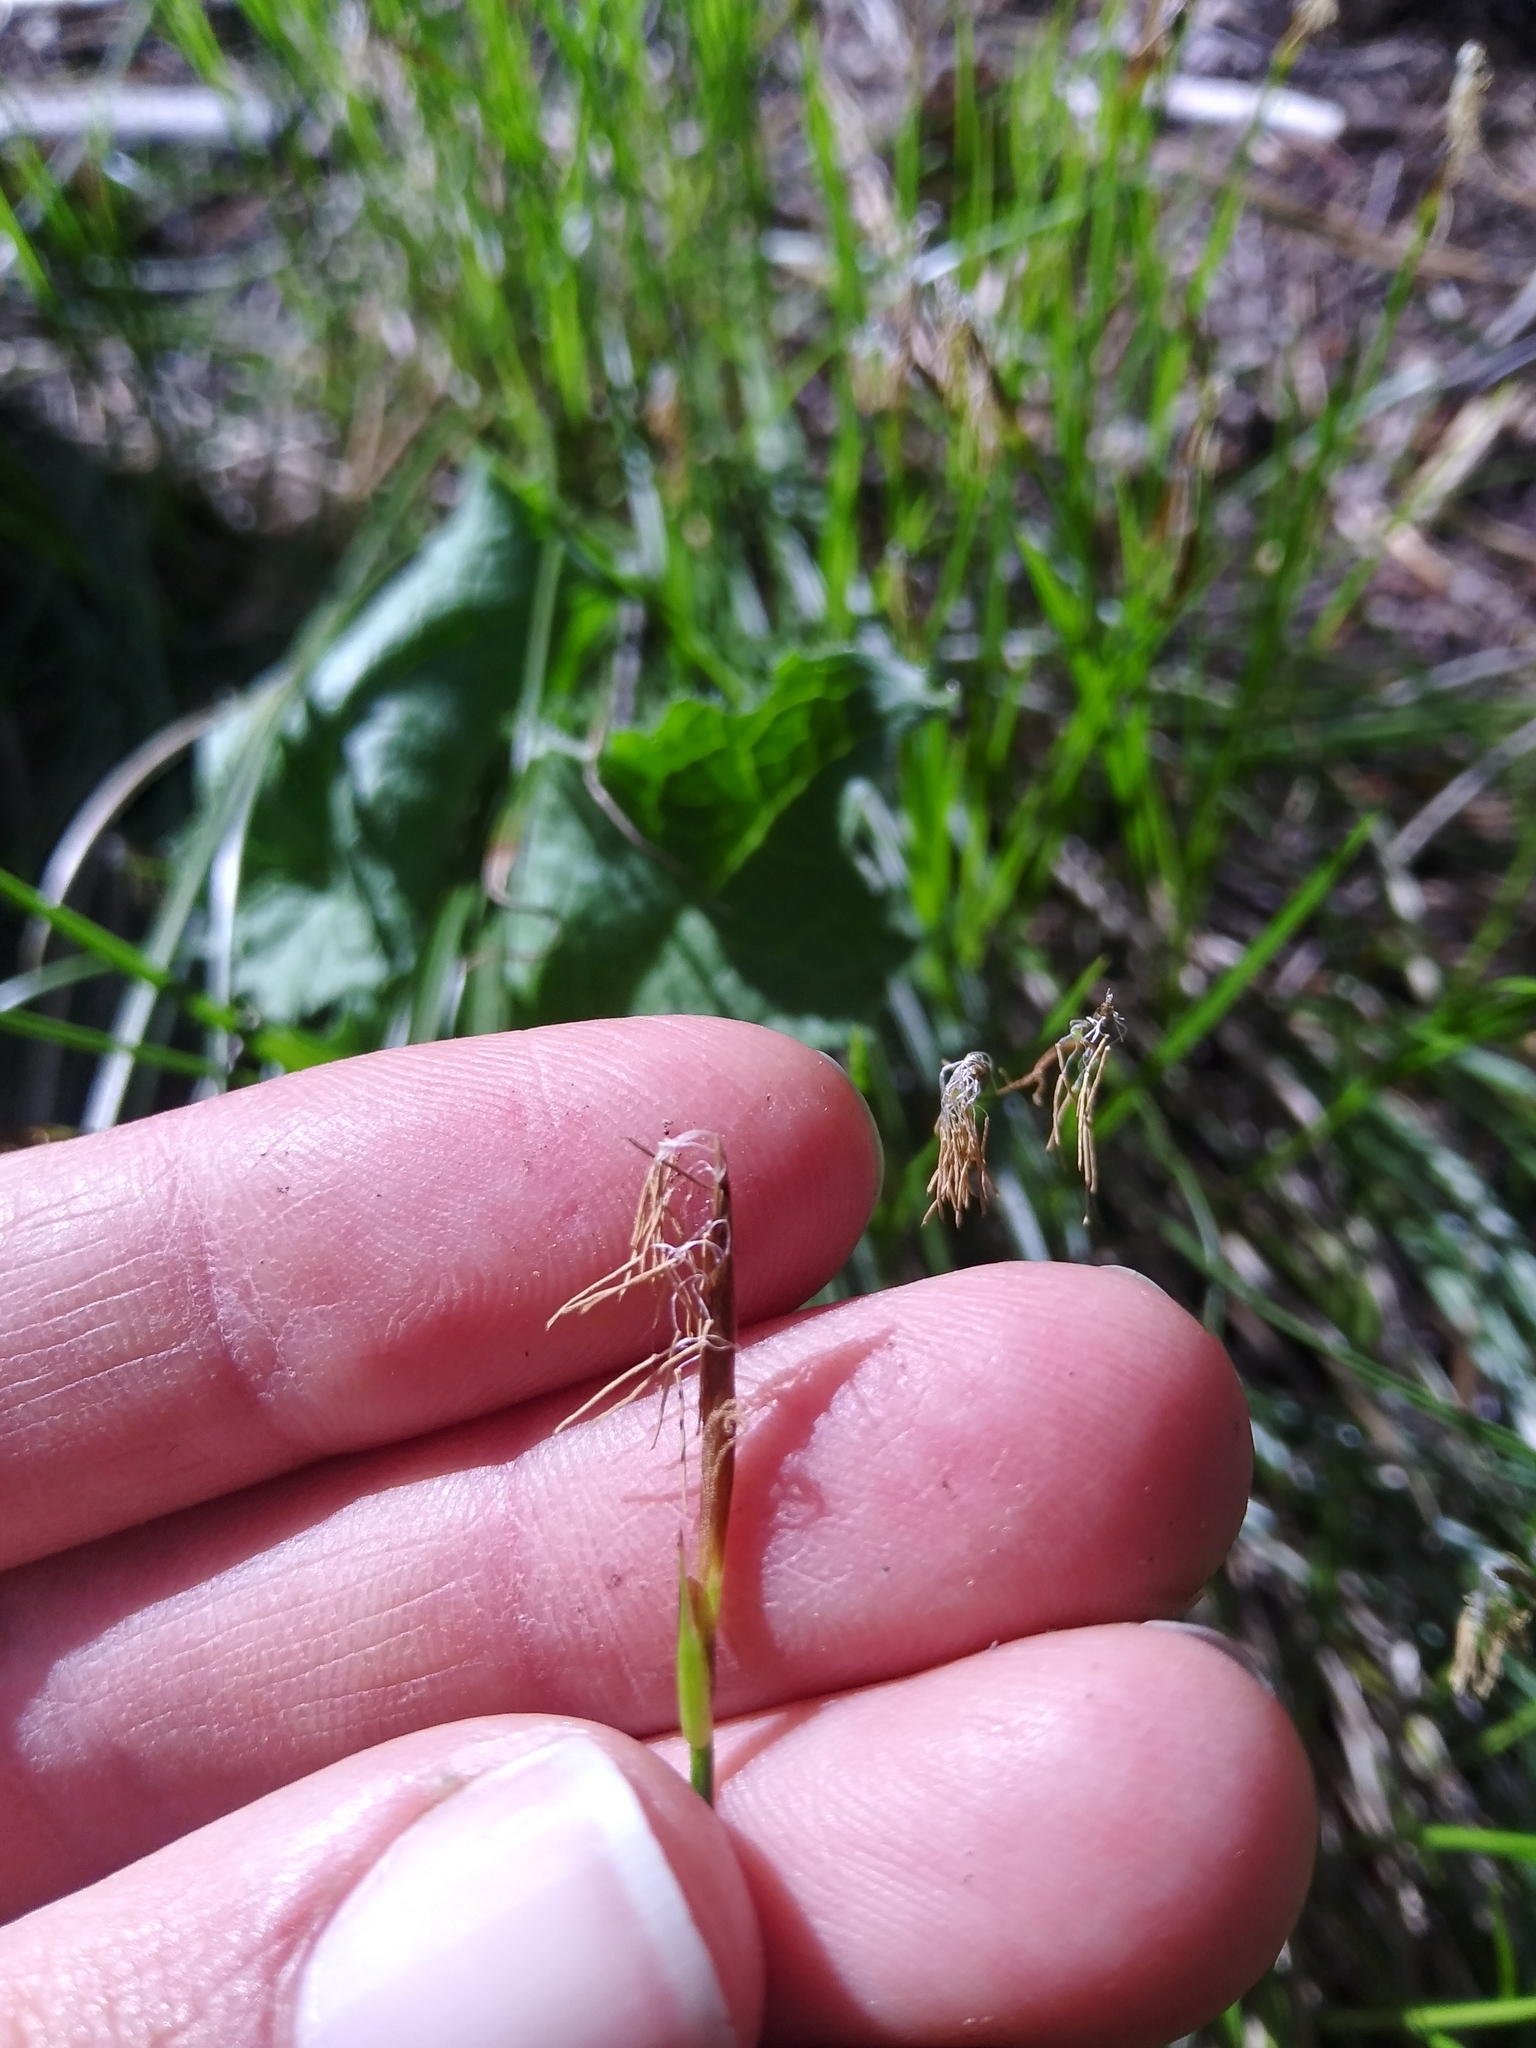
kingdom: Plantae
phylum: Tracheophyta
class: Liliopsida
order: Poales
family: Cyperaceae
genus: Carex
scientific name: Carex geyeri
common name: Elk sedge
